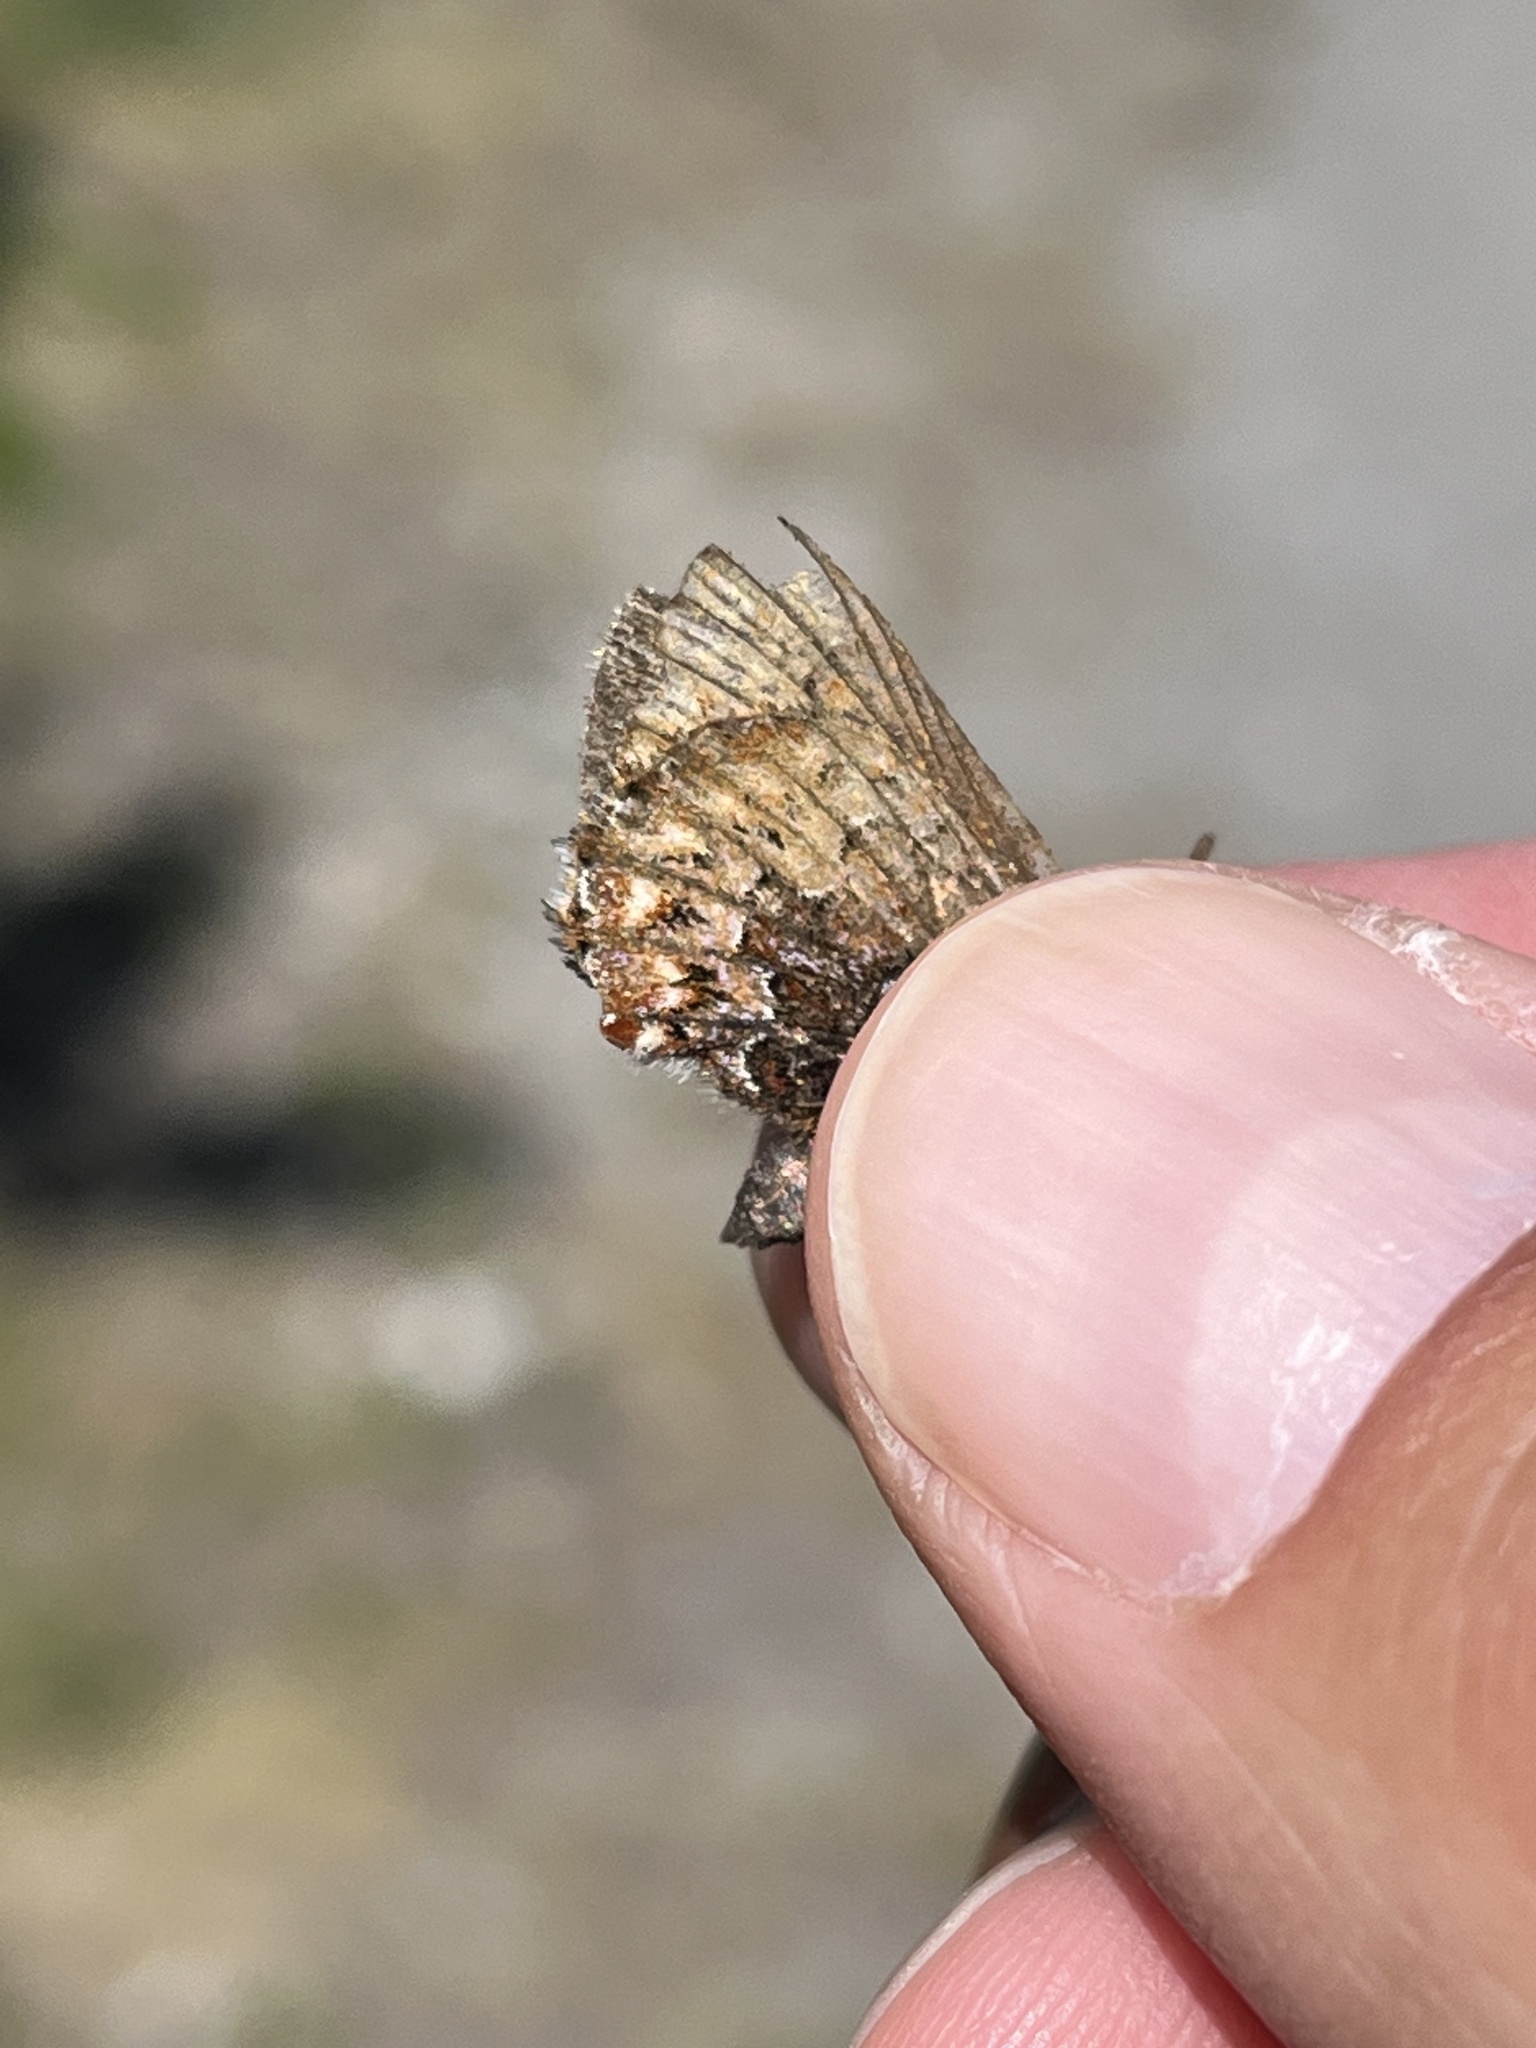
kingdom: Animalia
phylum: Arthropoda
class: Insecta
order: Lepidoptera
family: Lycaenidae
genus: Incisalia
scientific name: Incisalia eryphon
